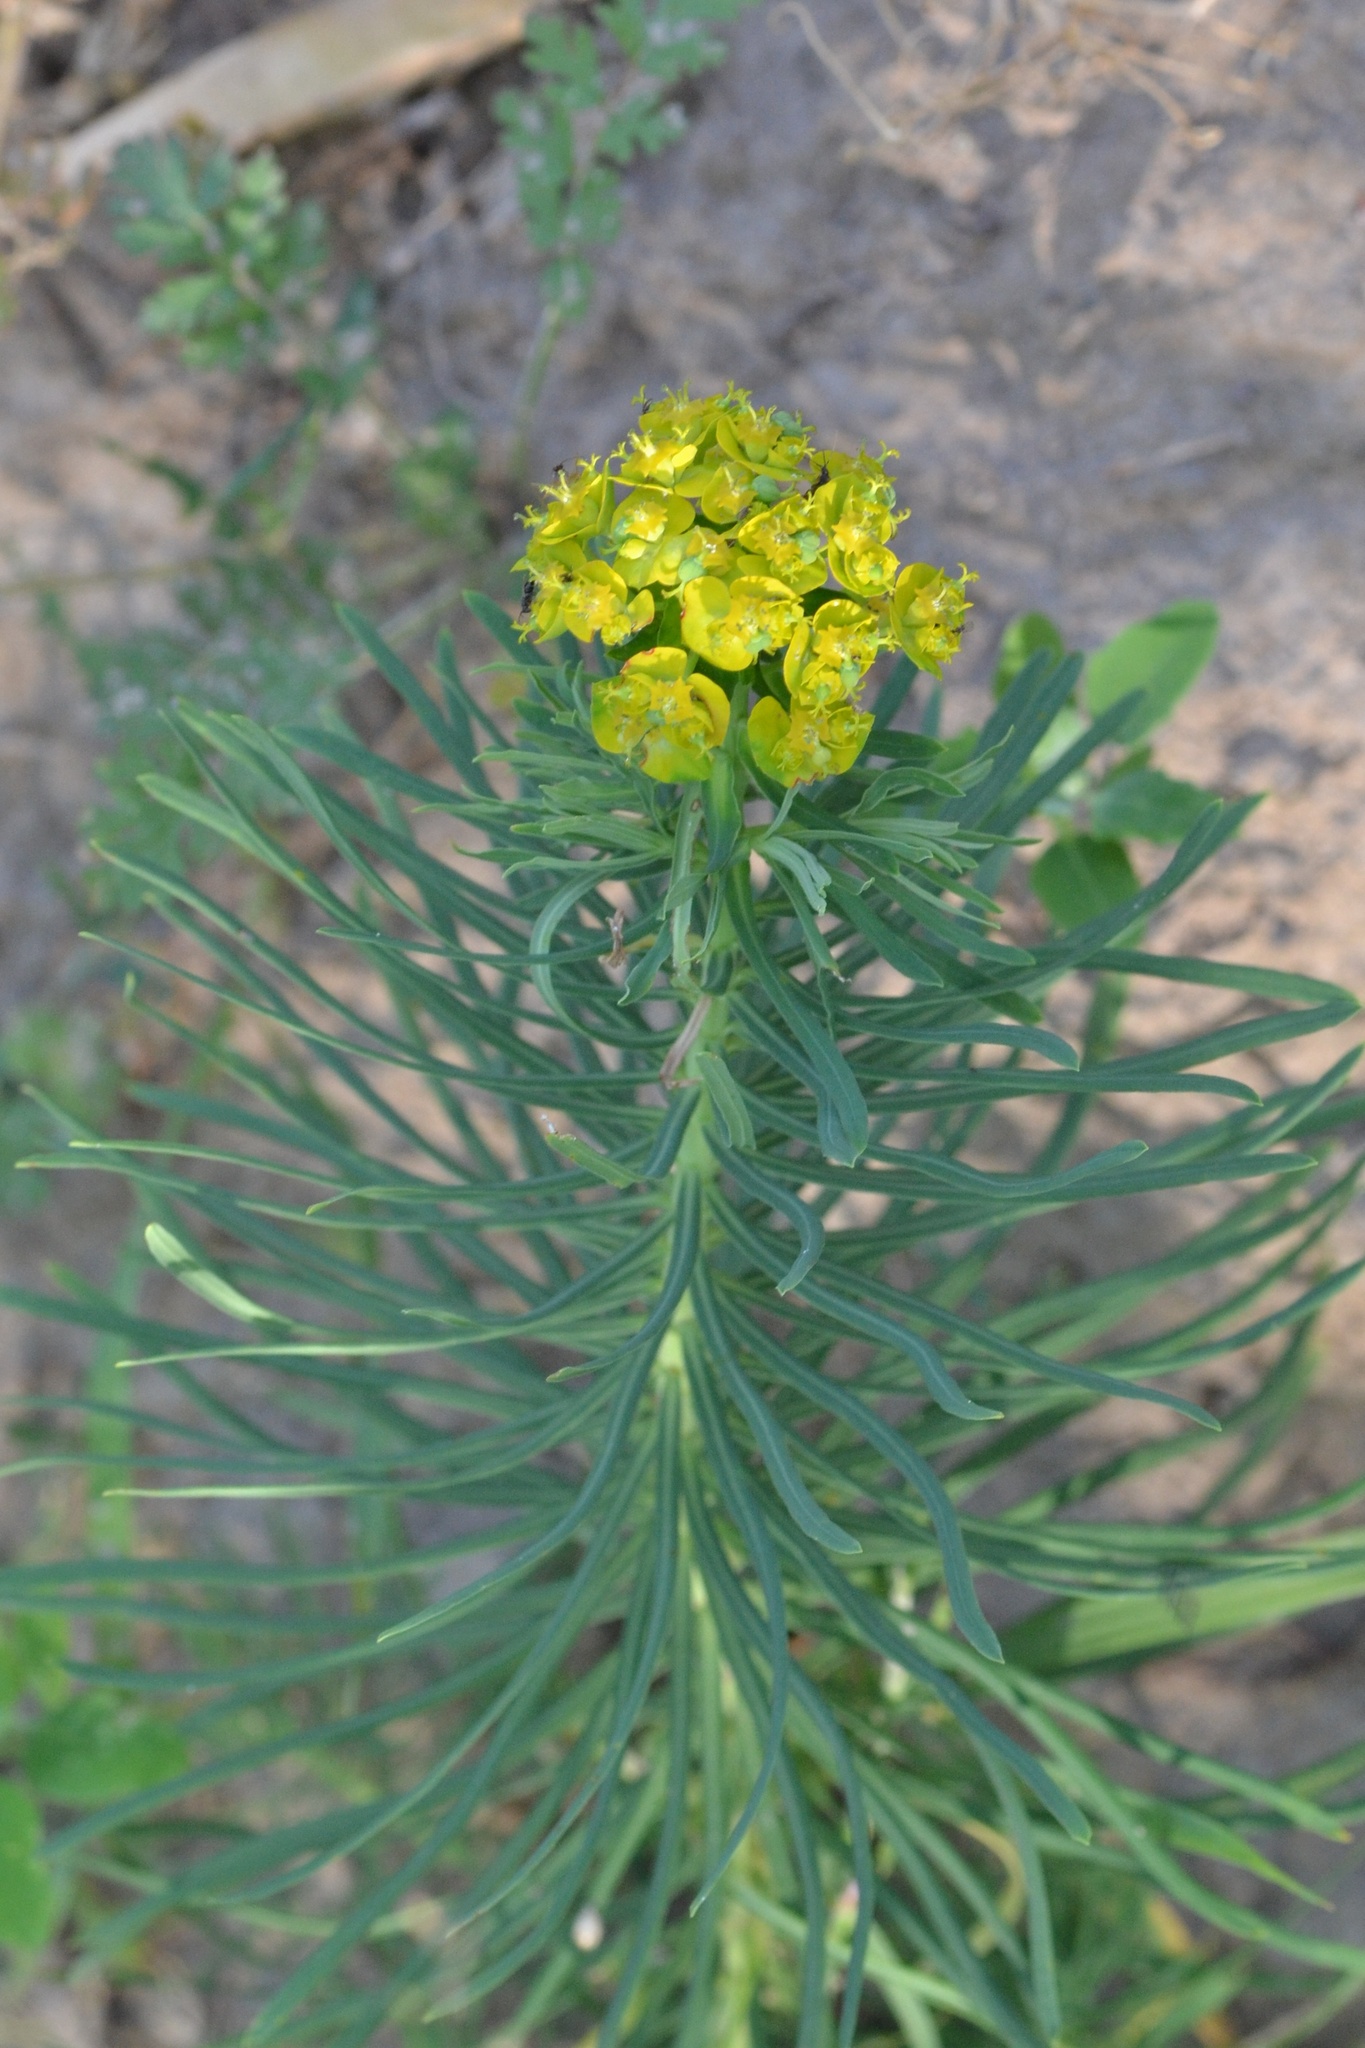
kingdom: Plantae
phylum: Tracheophyta
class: Magnoliopsida
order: Malpighiales
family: Euphorbiaceae
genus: Euphorbia
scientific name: Euphorbia cyparissias
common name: Cypress spurge
